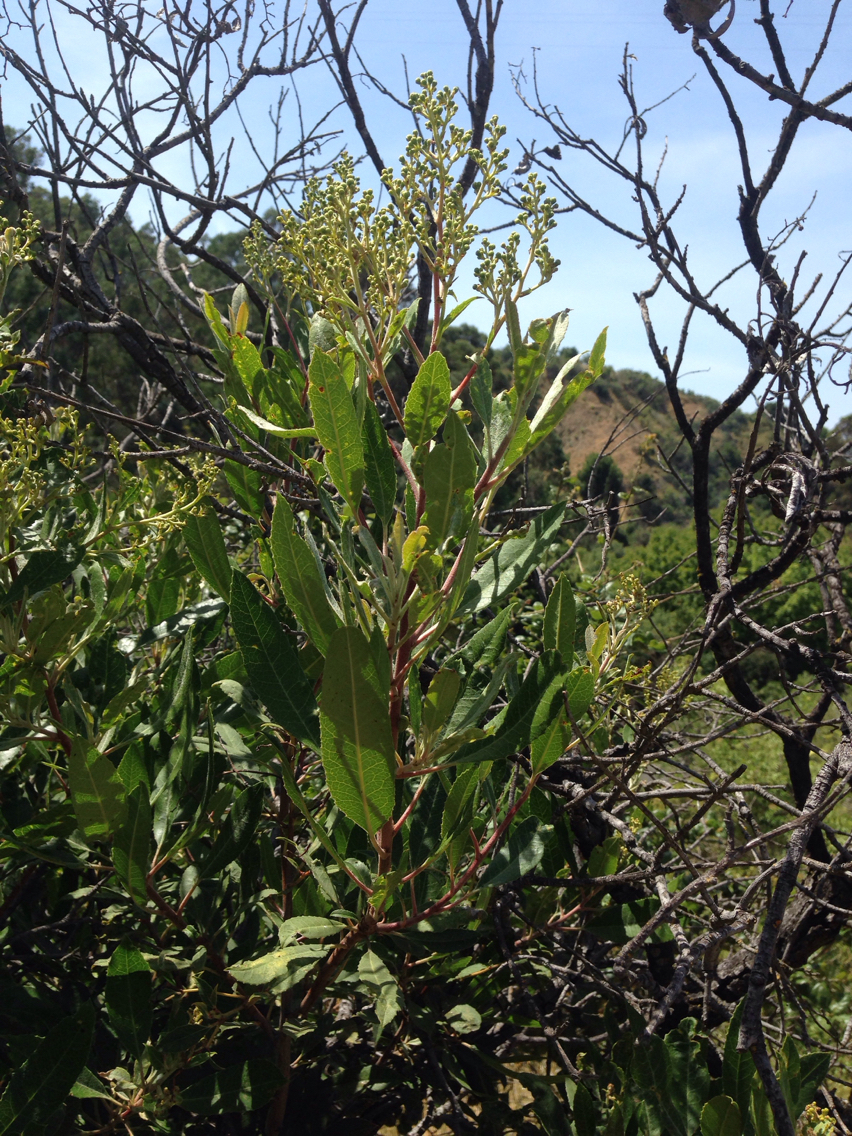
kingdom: Plantae
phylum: Tracheophyta
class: Magnoliopsida
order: Rosales
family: Rosaceae
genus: Heteromeles
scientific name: Heteromeles arbutifolia
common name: California-holly
